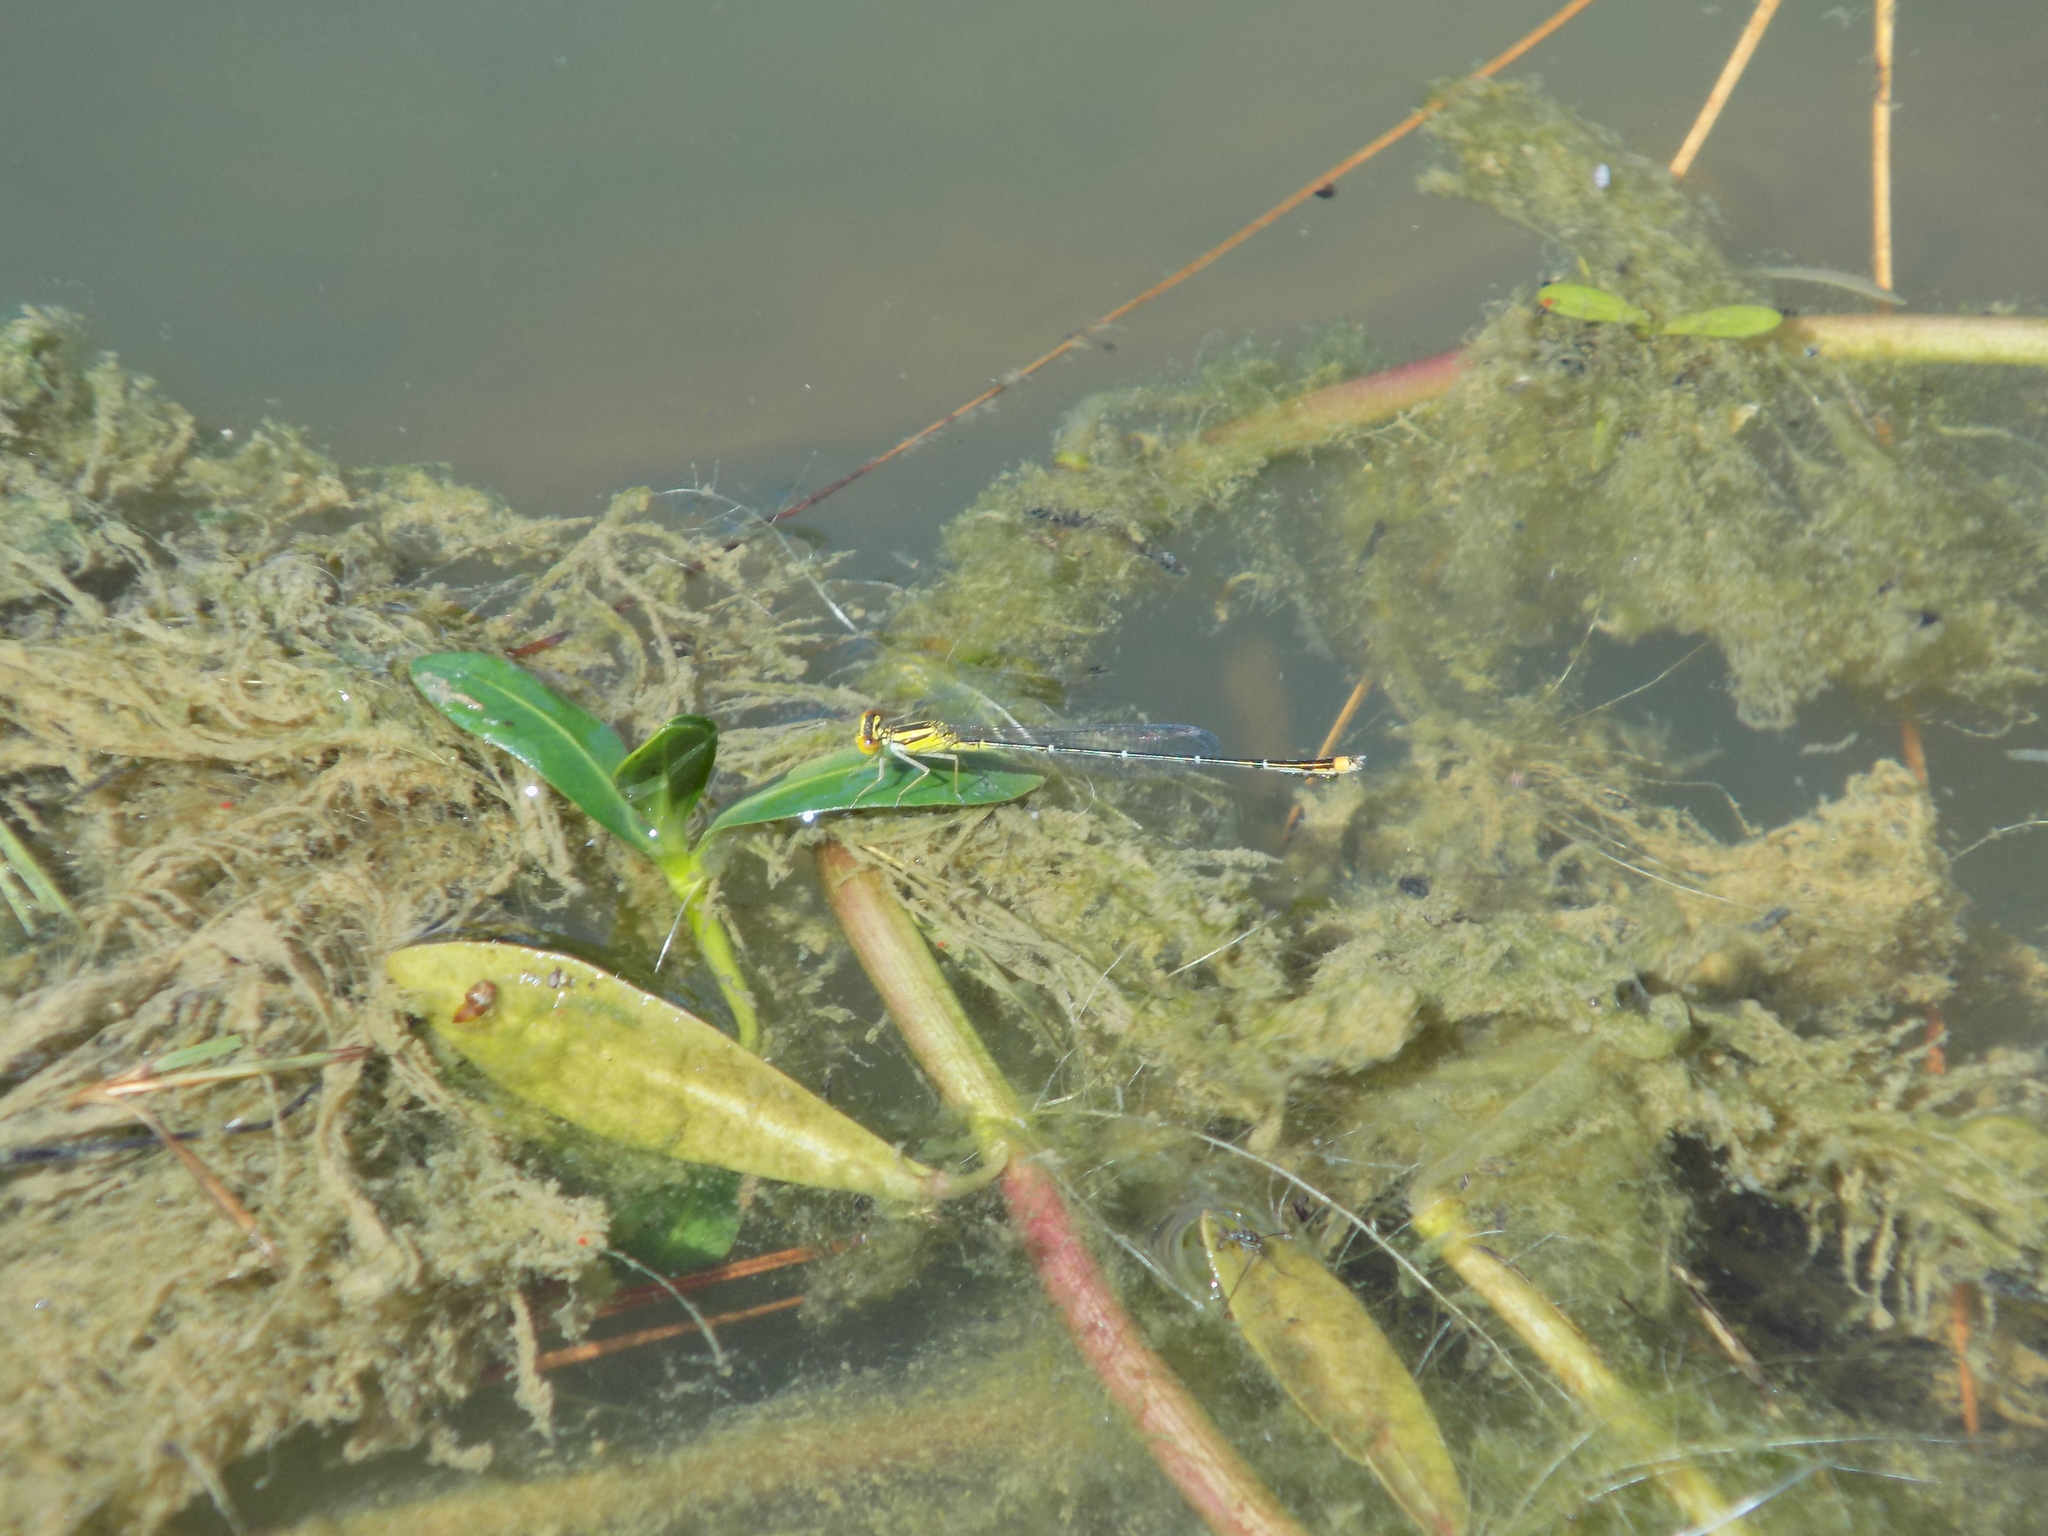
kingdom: Animalia
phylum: Arthropoda
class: Insecta
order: Odonata
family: Coenagrionidae
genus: Enallagma
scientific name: Enallagma signatum
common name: Orange bluet
